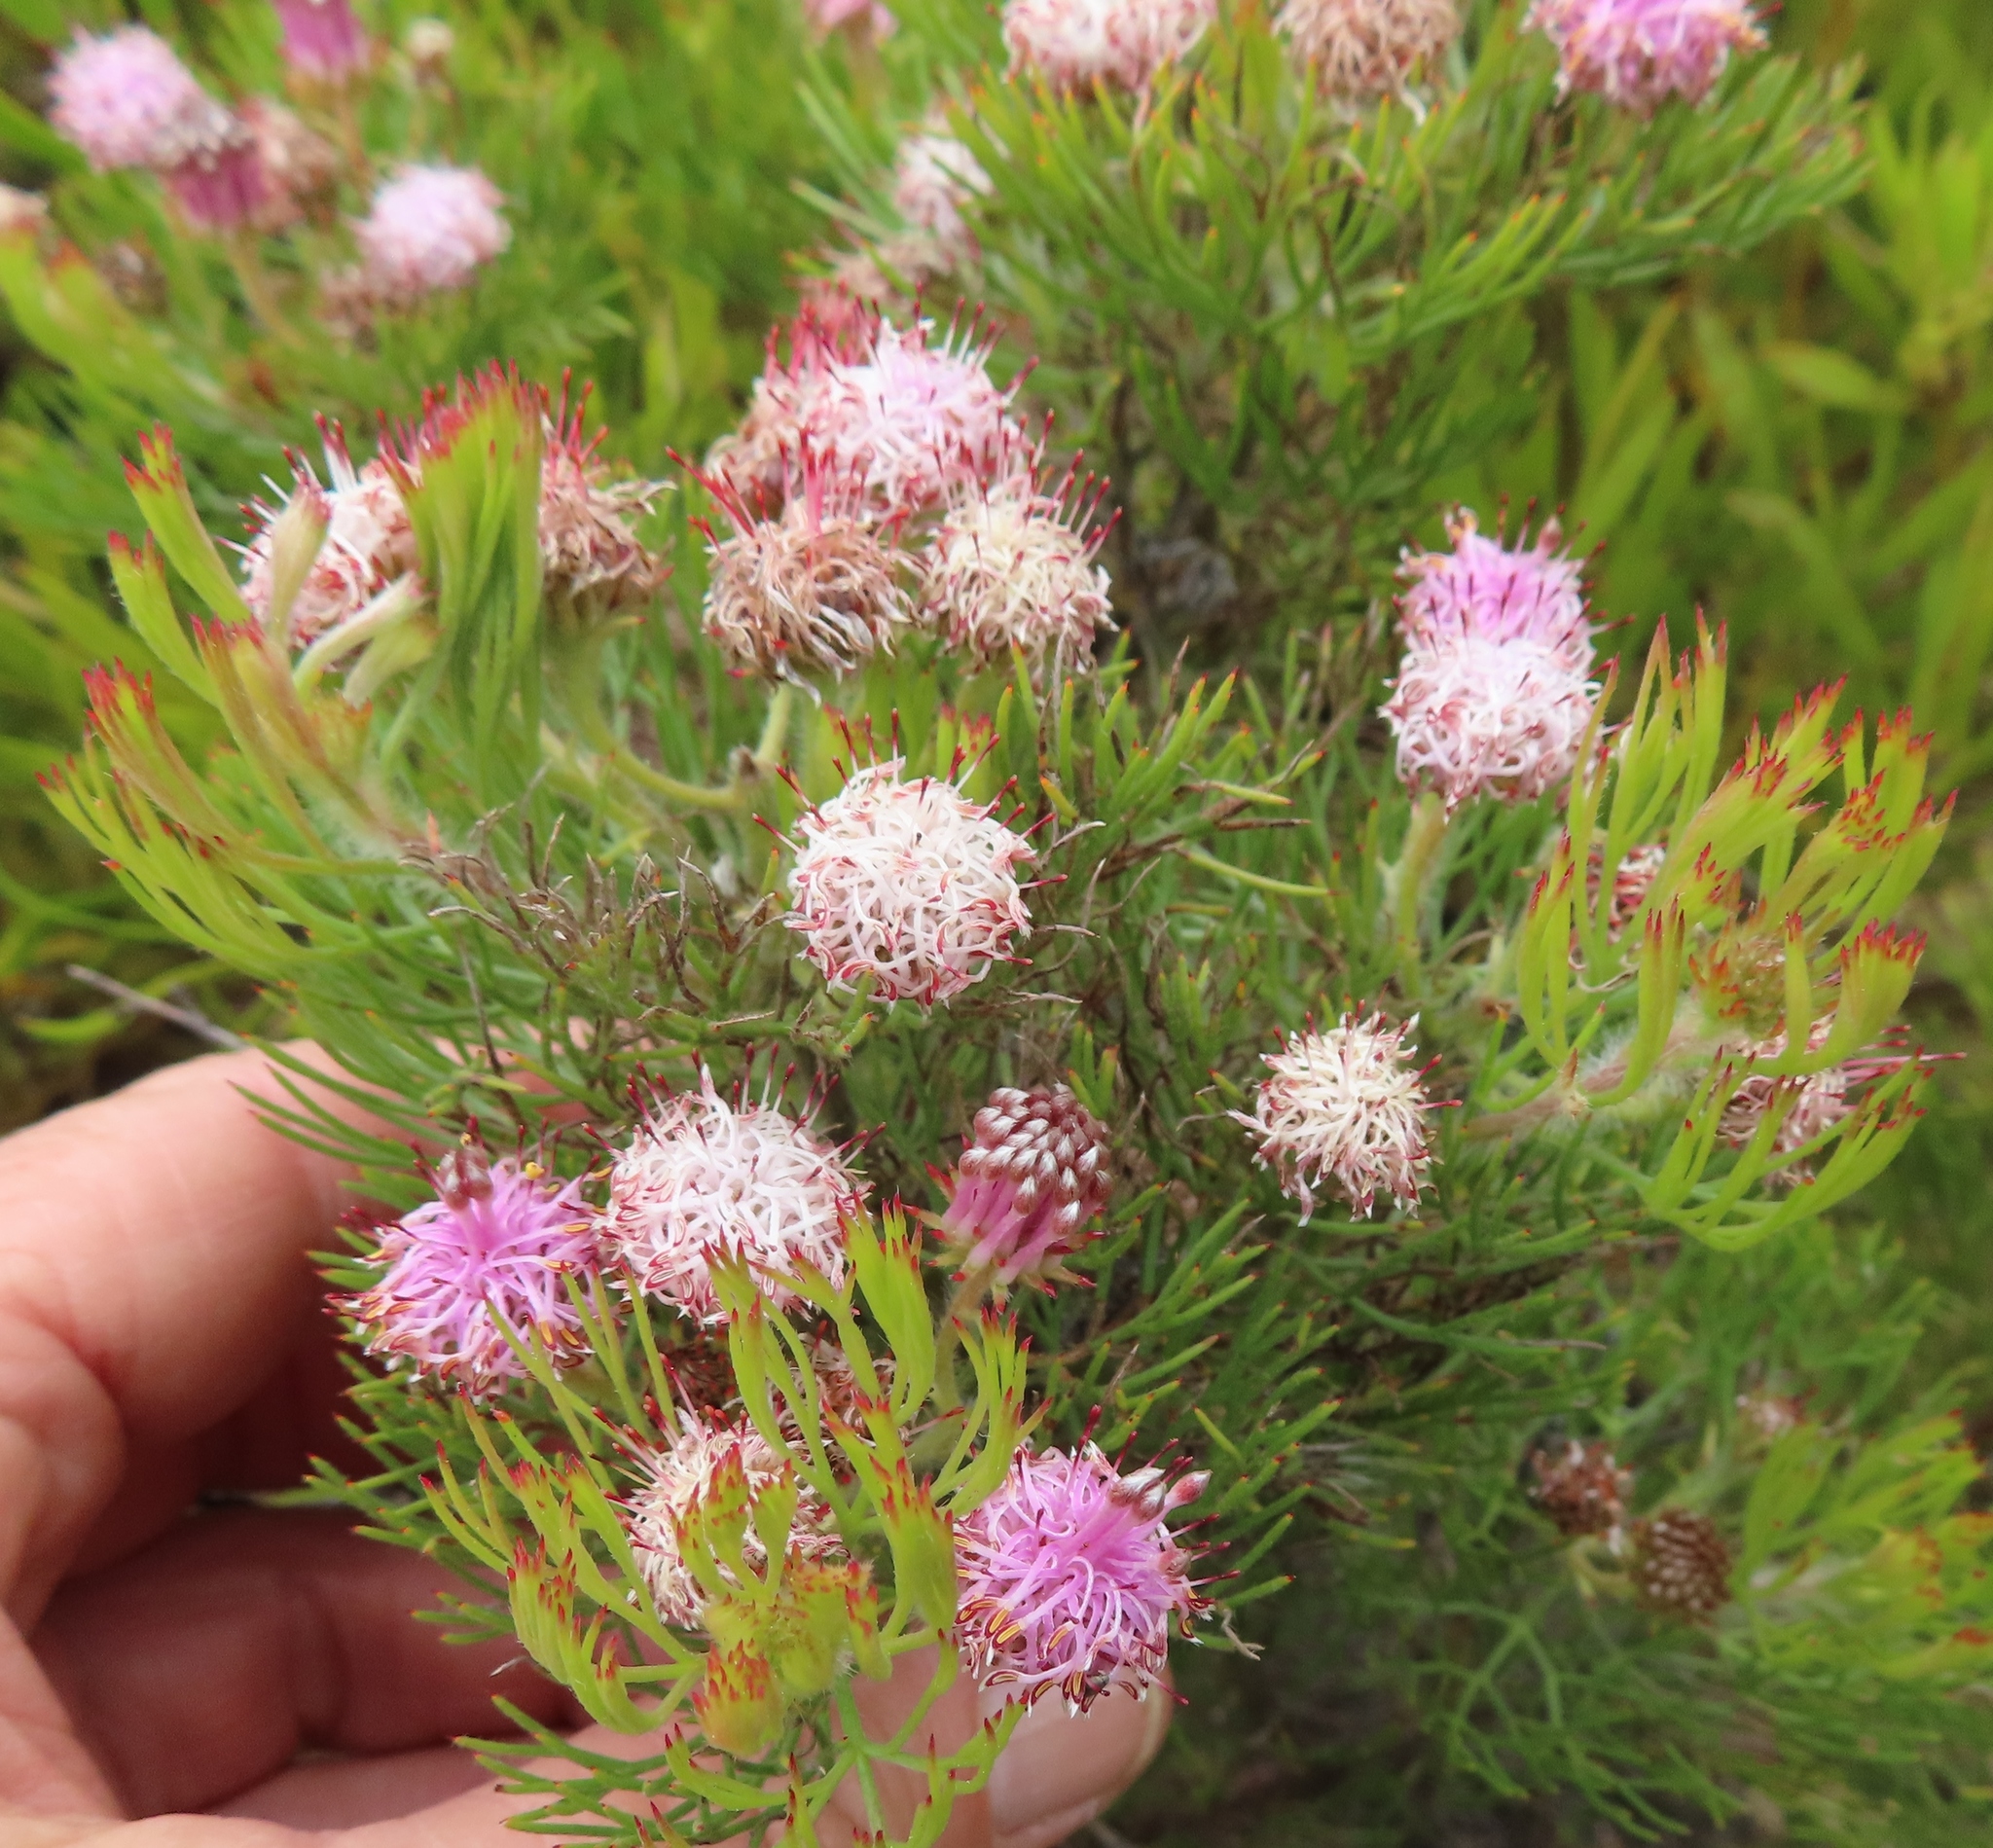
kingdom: Plantae
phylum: Tracheophyta
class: Magnoliopsida
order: Proteales
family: Proteaceae
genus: Serruria
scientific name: Serruria fasciflora
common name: Common pin spiderhead
